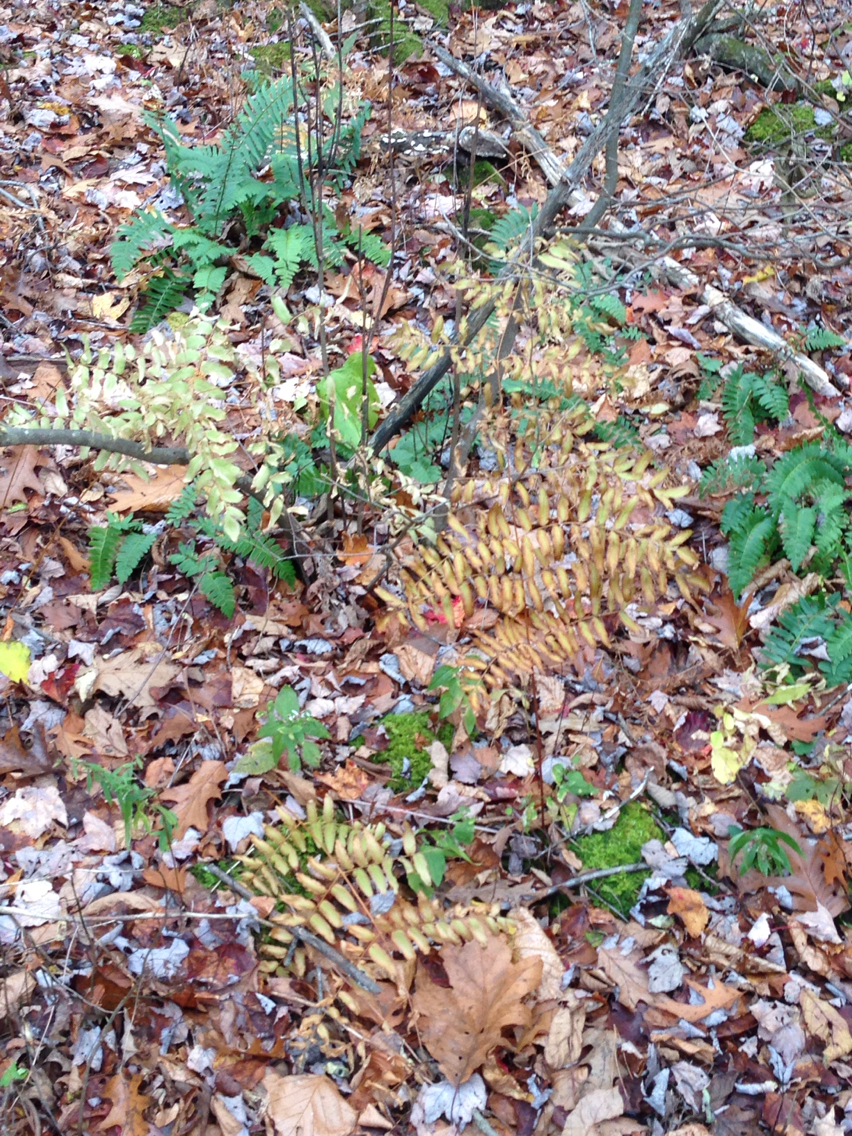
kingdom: Plantae
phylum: Tracheophyta
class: Polypodiopsida
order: Osmundales
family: Osmundaceae
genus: Osmunda
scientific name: Osmunda spectabilis
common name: American royal fern
